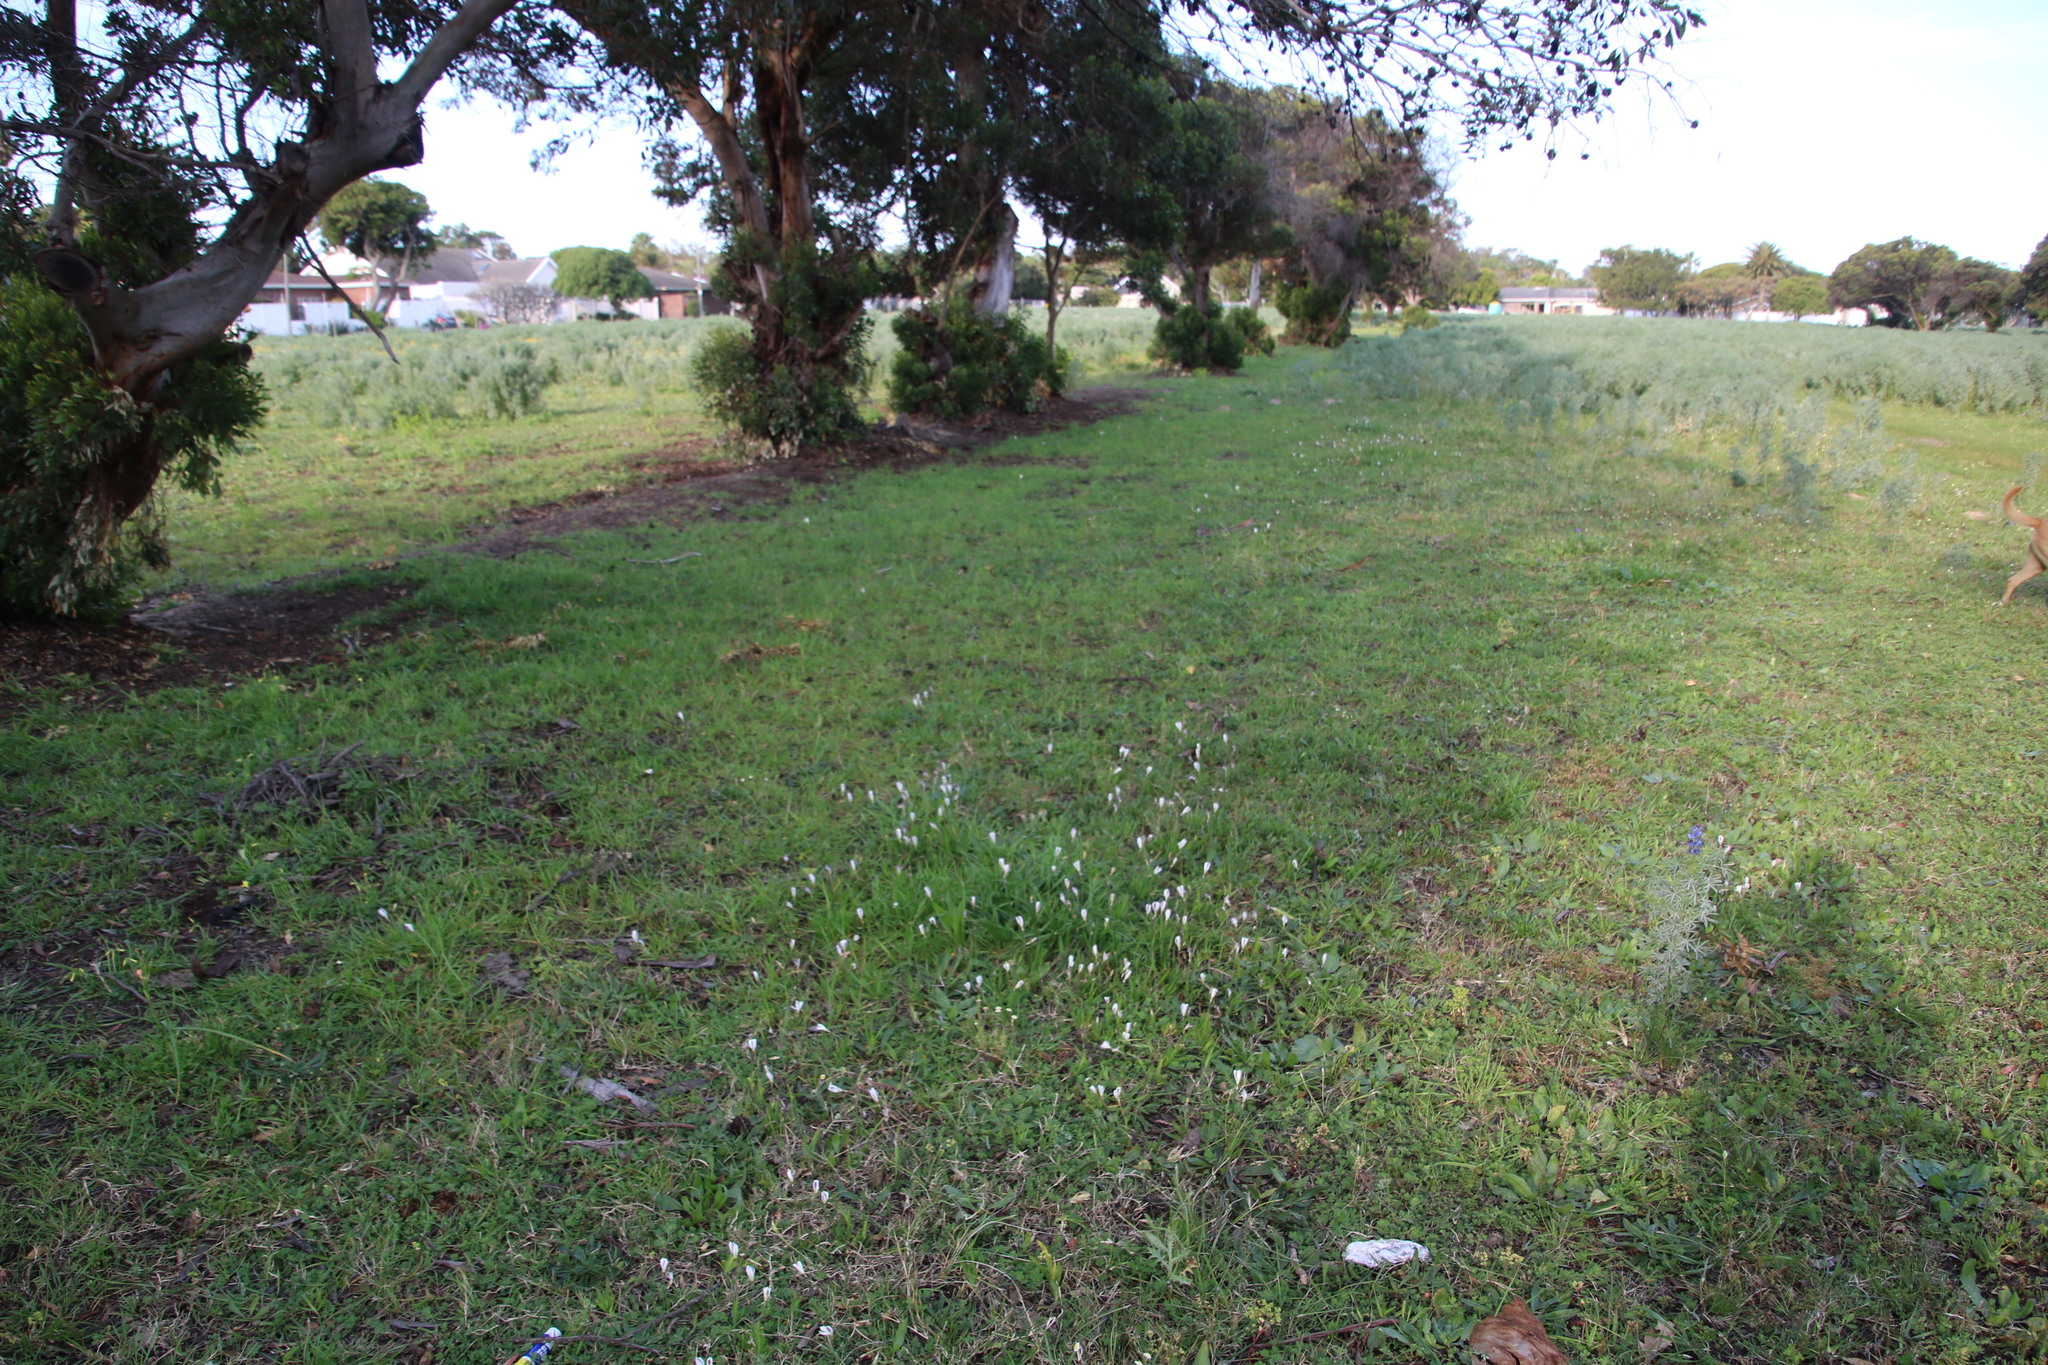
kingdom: Plantae
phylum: Tracheophyta
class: Liliopsida
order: Asparagales
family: Iridaceae
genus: Sparaxis
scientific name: Sparaxis bulbifera
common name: Harlequin-flower
